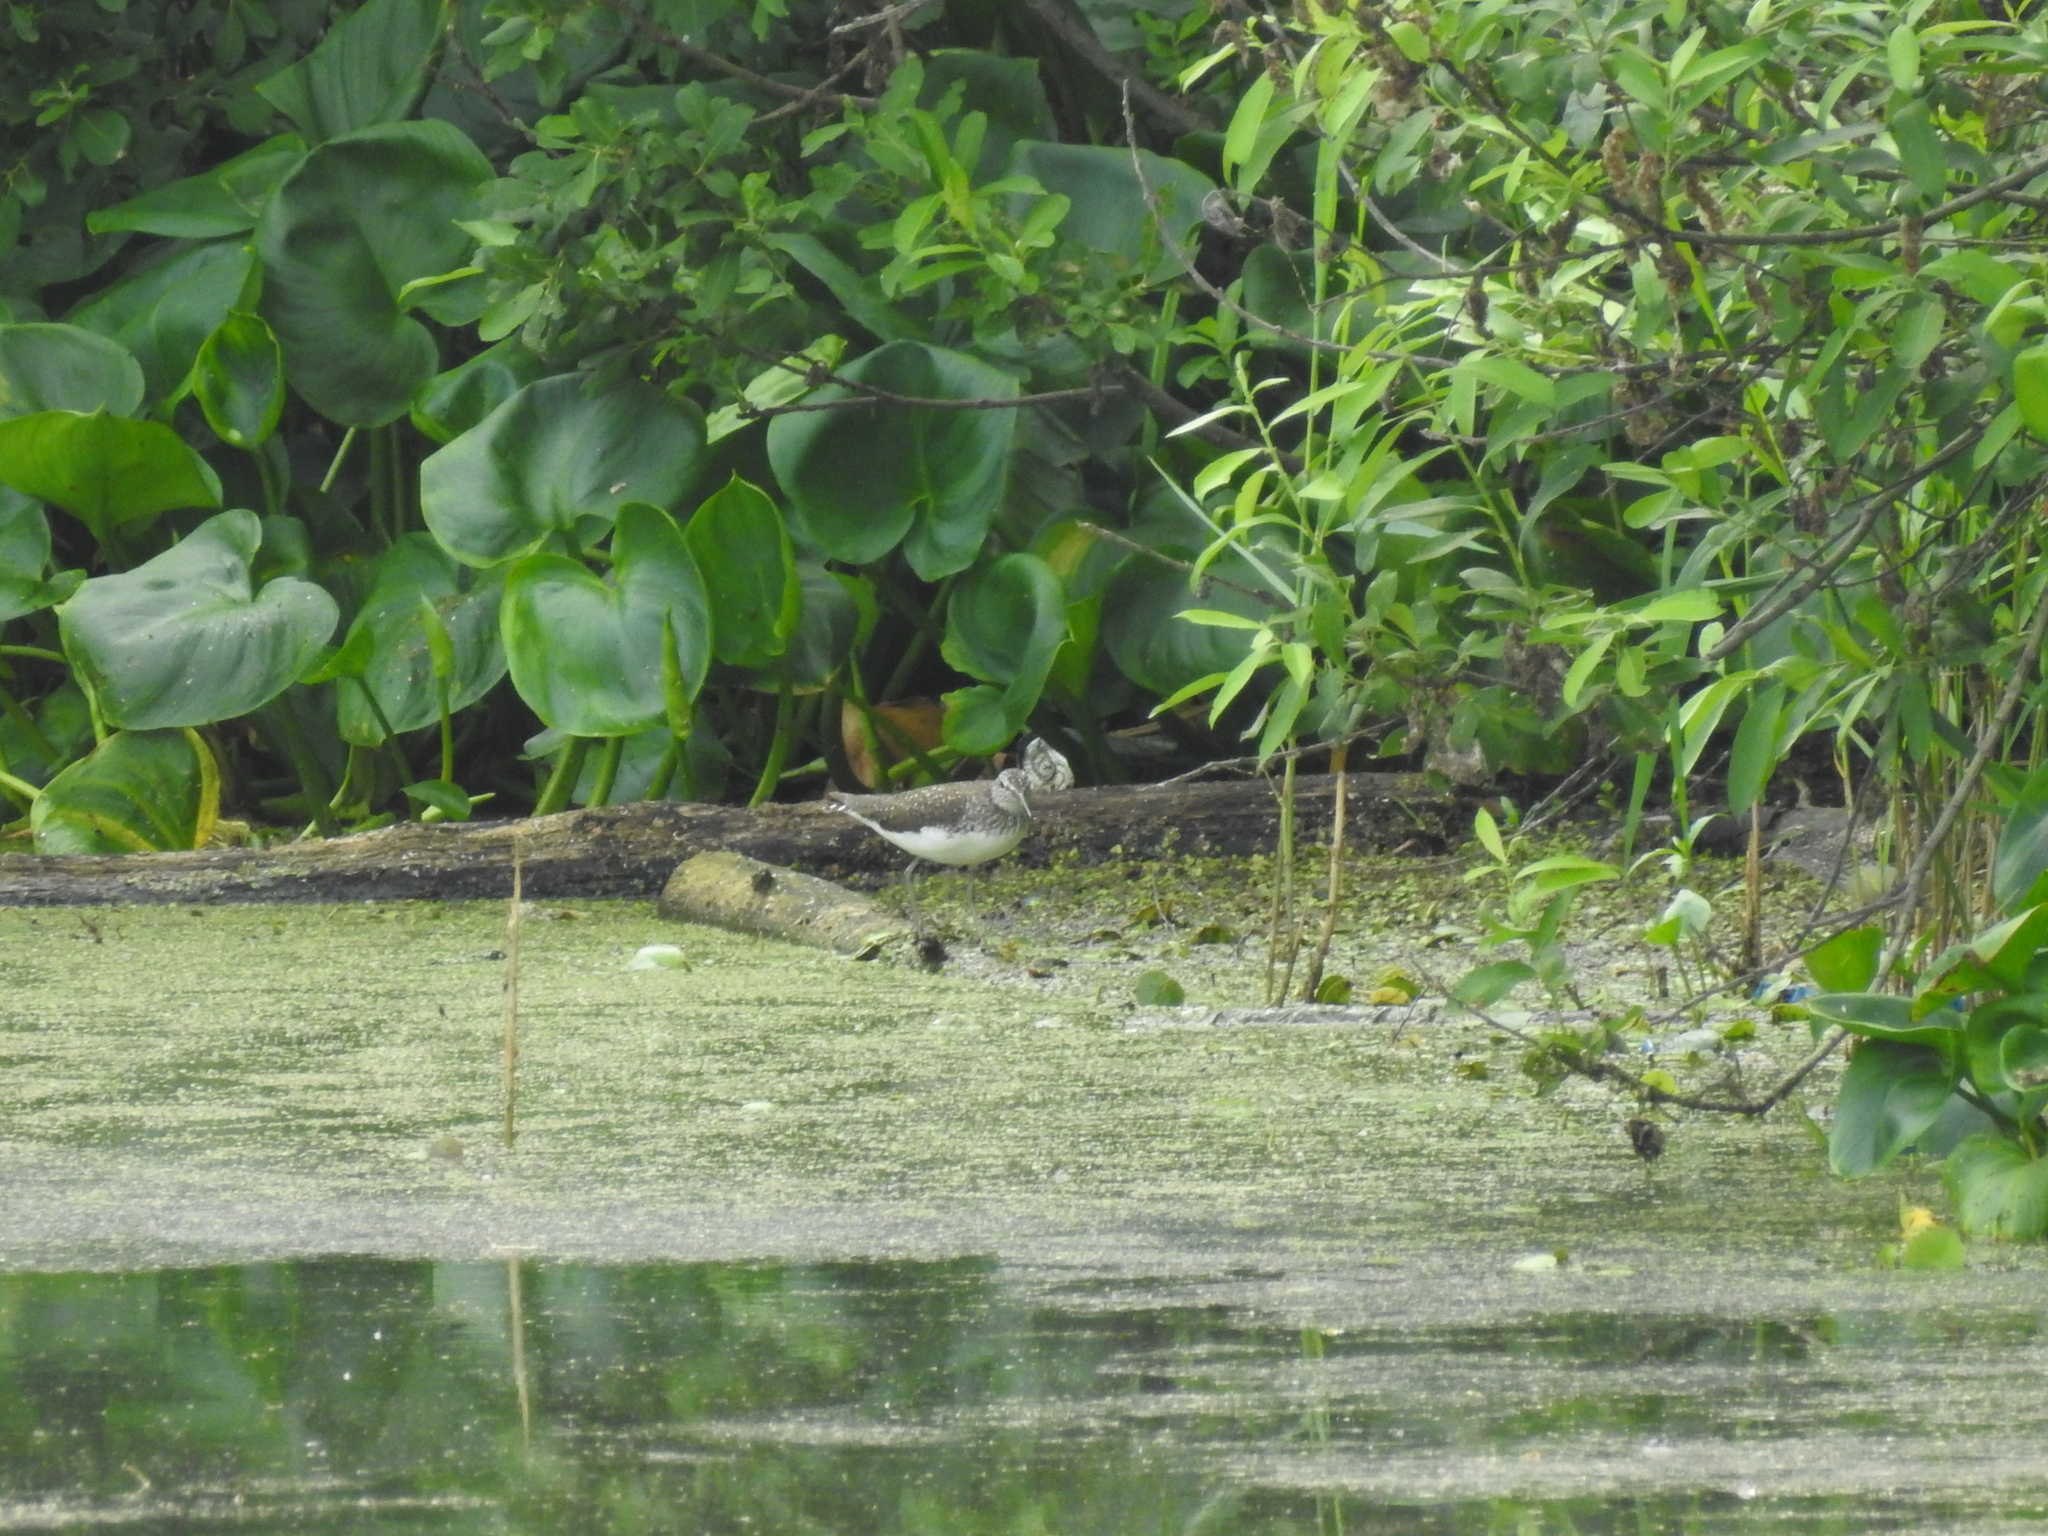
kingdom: Animalia
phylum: Chordata
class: Aves
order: Charadriiformes
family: Scolopacidae
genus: Tringa
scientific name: Tringa ochropus
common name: Green sandpiper
